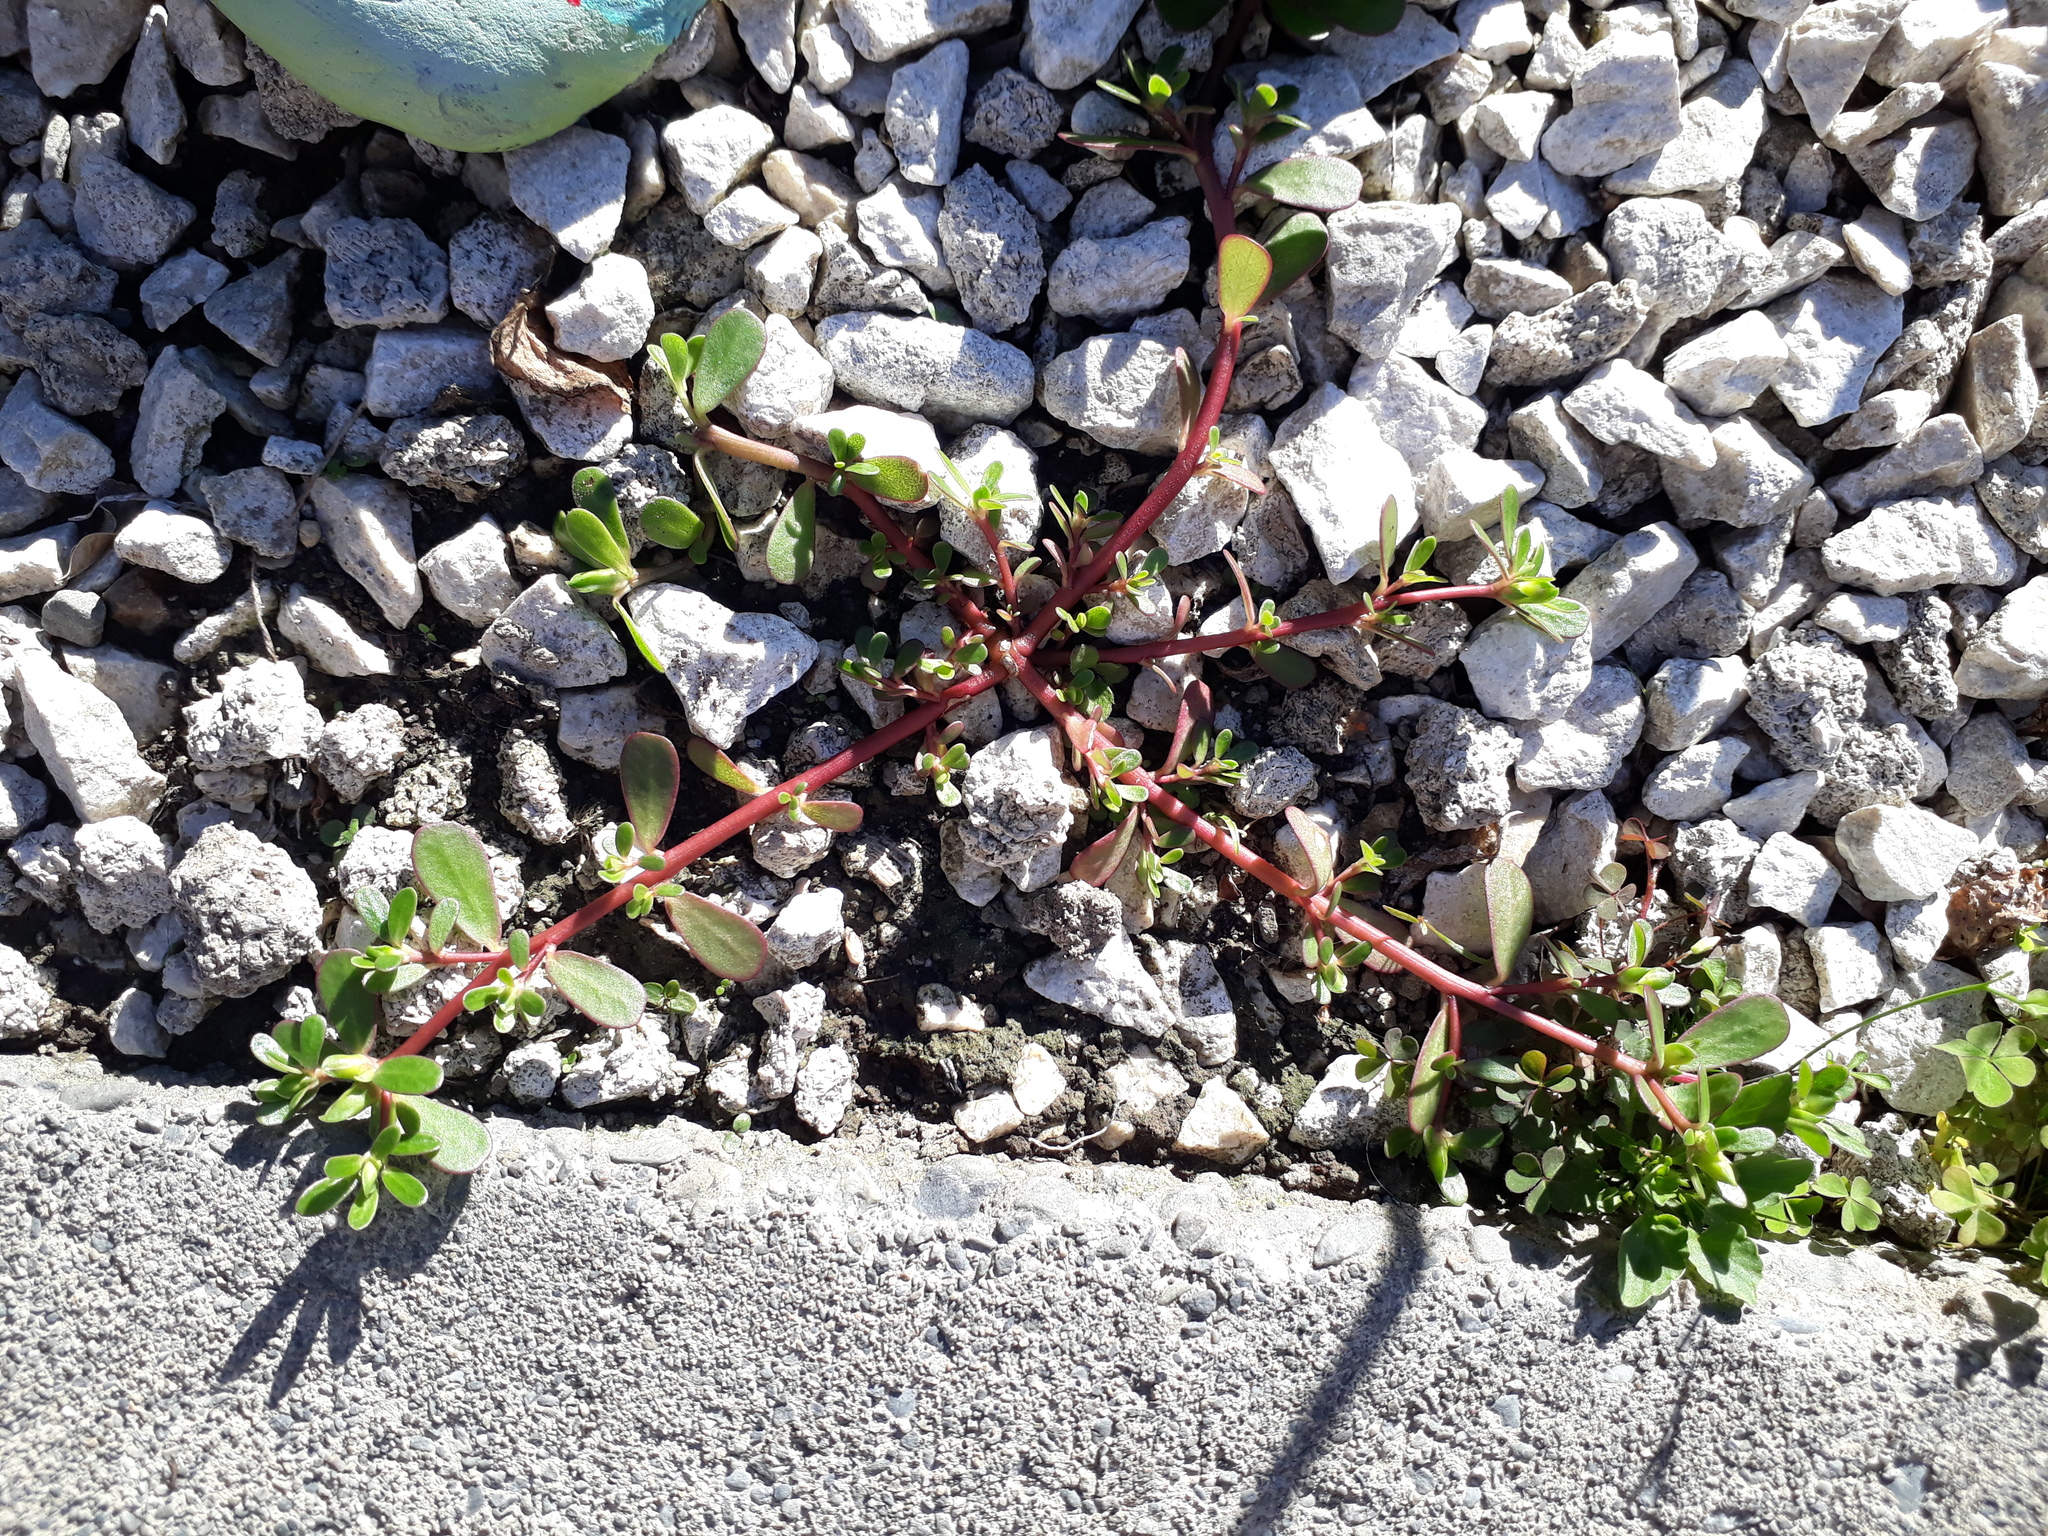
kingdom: Plantae
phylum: Tracheophyta
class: Magnoliopsida
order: Caryophyllales
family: Portulacaceae
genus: Portulaca
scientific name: Portulaca oleracea
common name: Common purslane
